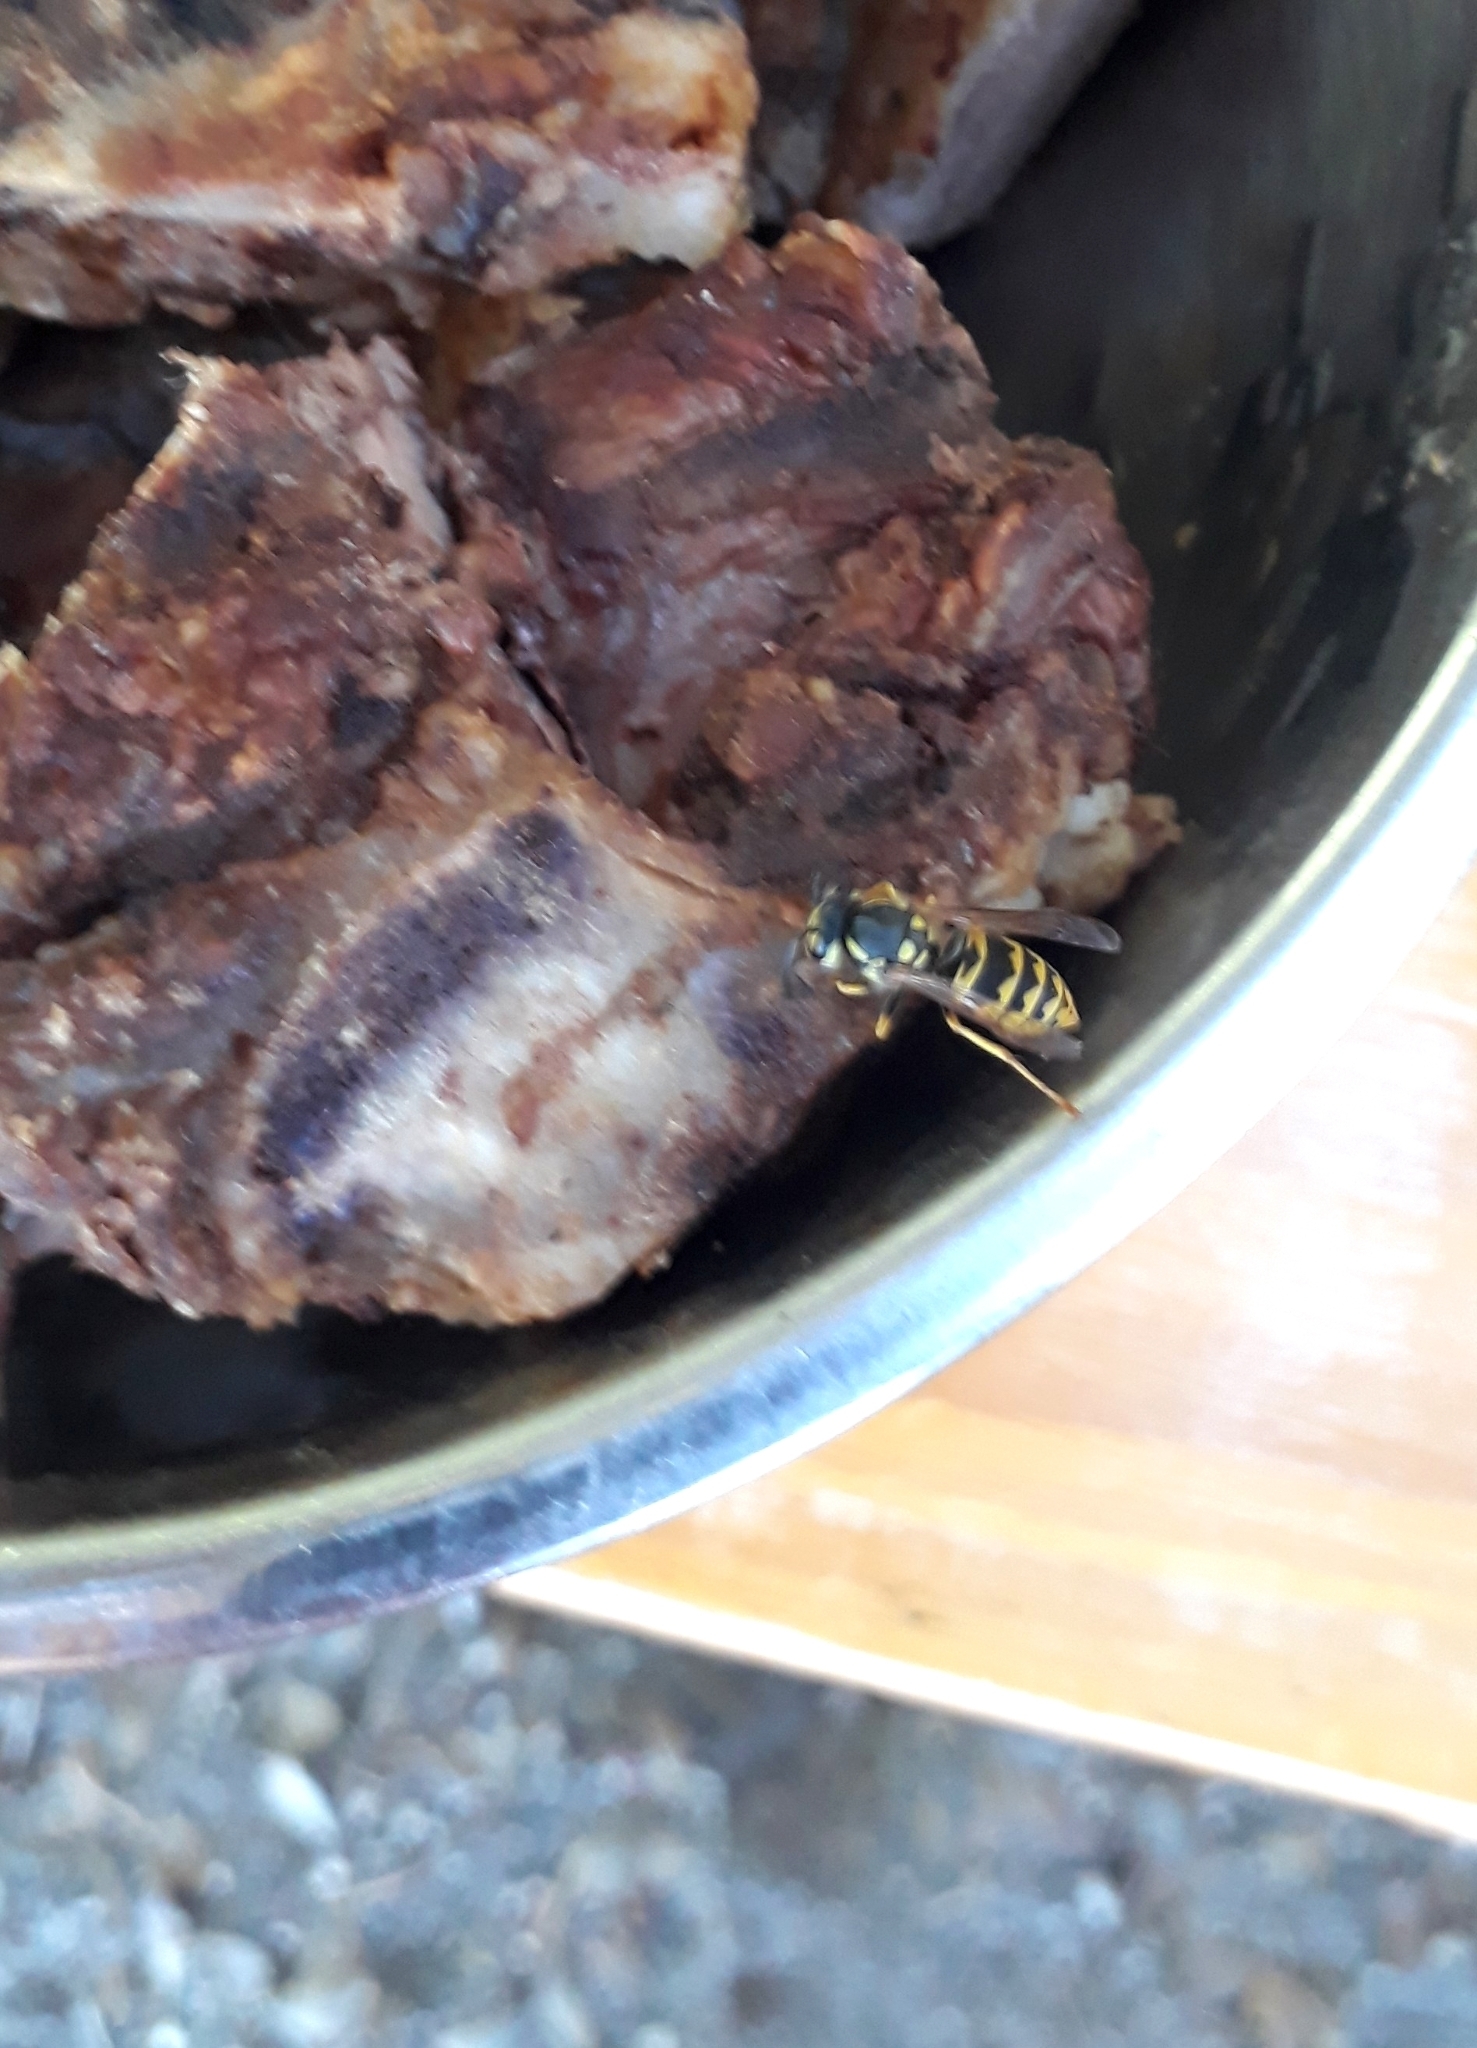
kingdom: Animalia
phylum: Arthropoda
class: Insecta
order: Hymenoptera
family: Vespidae
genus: Vespula
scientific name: Vespula germanica
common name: German wasp
